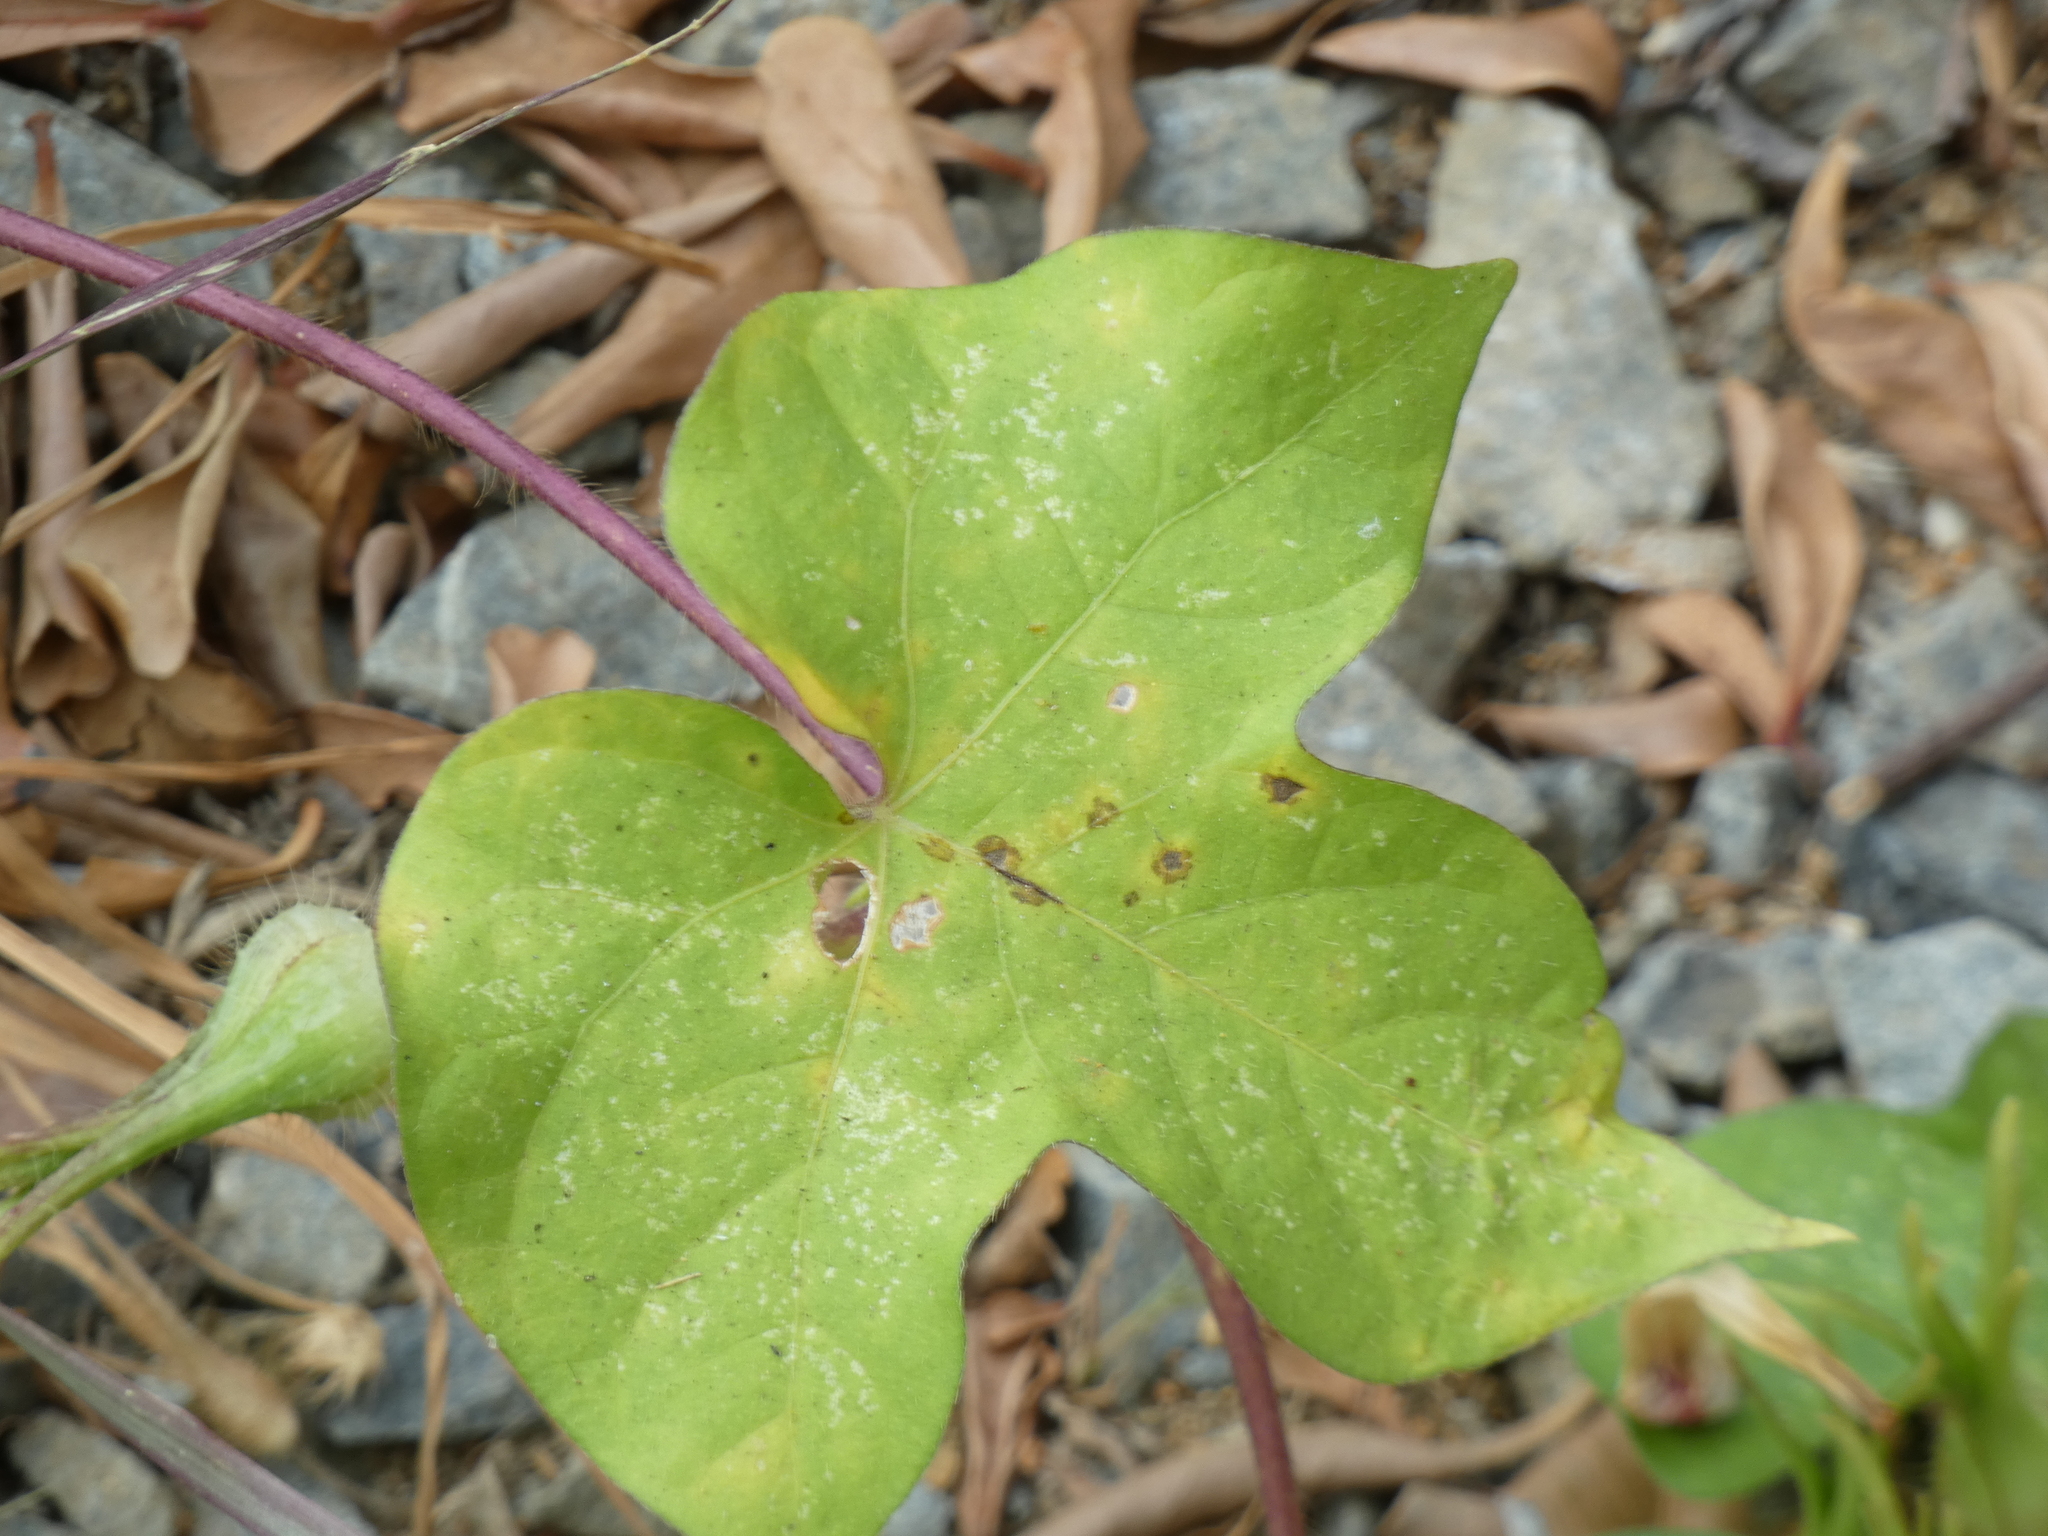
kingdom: Plantae
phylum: Tracheophyta
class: Magnoliopsida
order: Solanales
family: Convolvulaceae
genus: Ipomoea
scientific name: Ipomoea nil
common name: Japanese morning-glory
